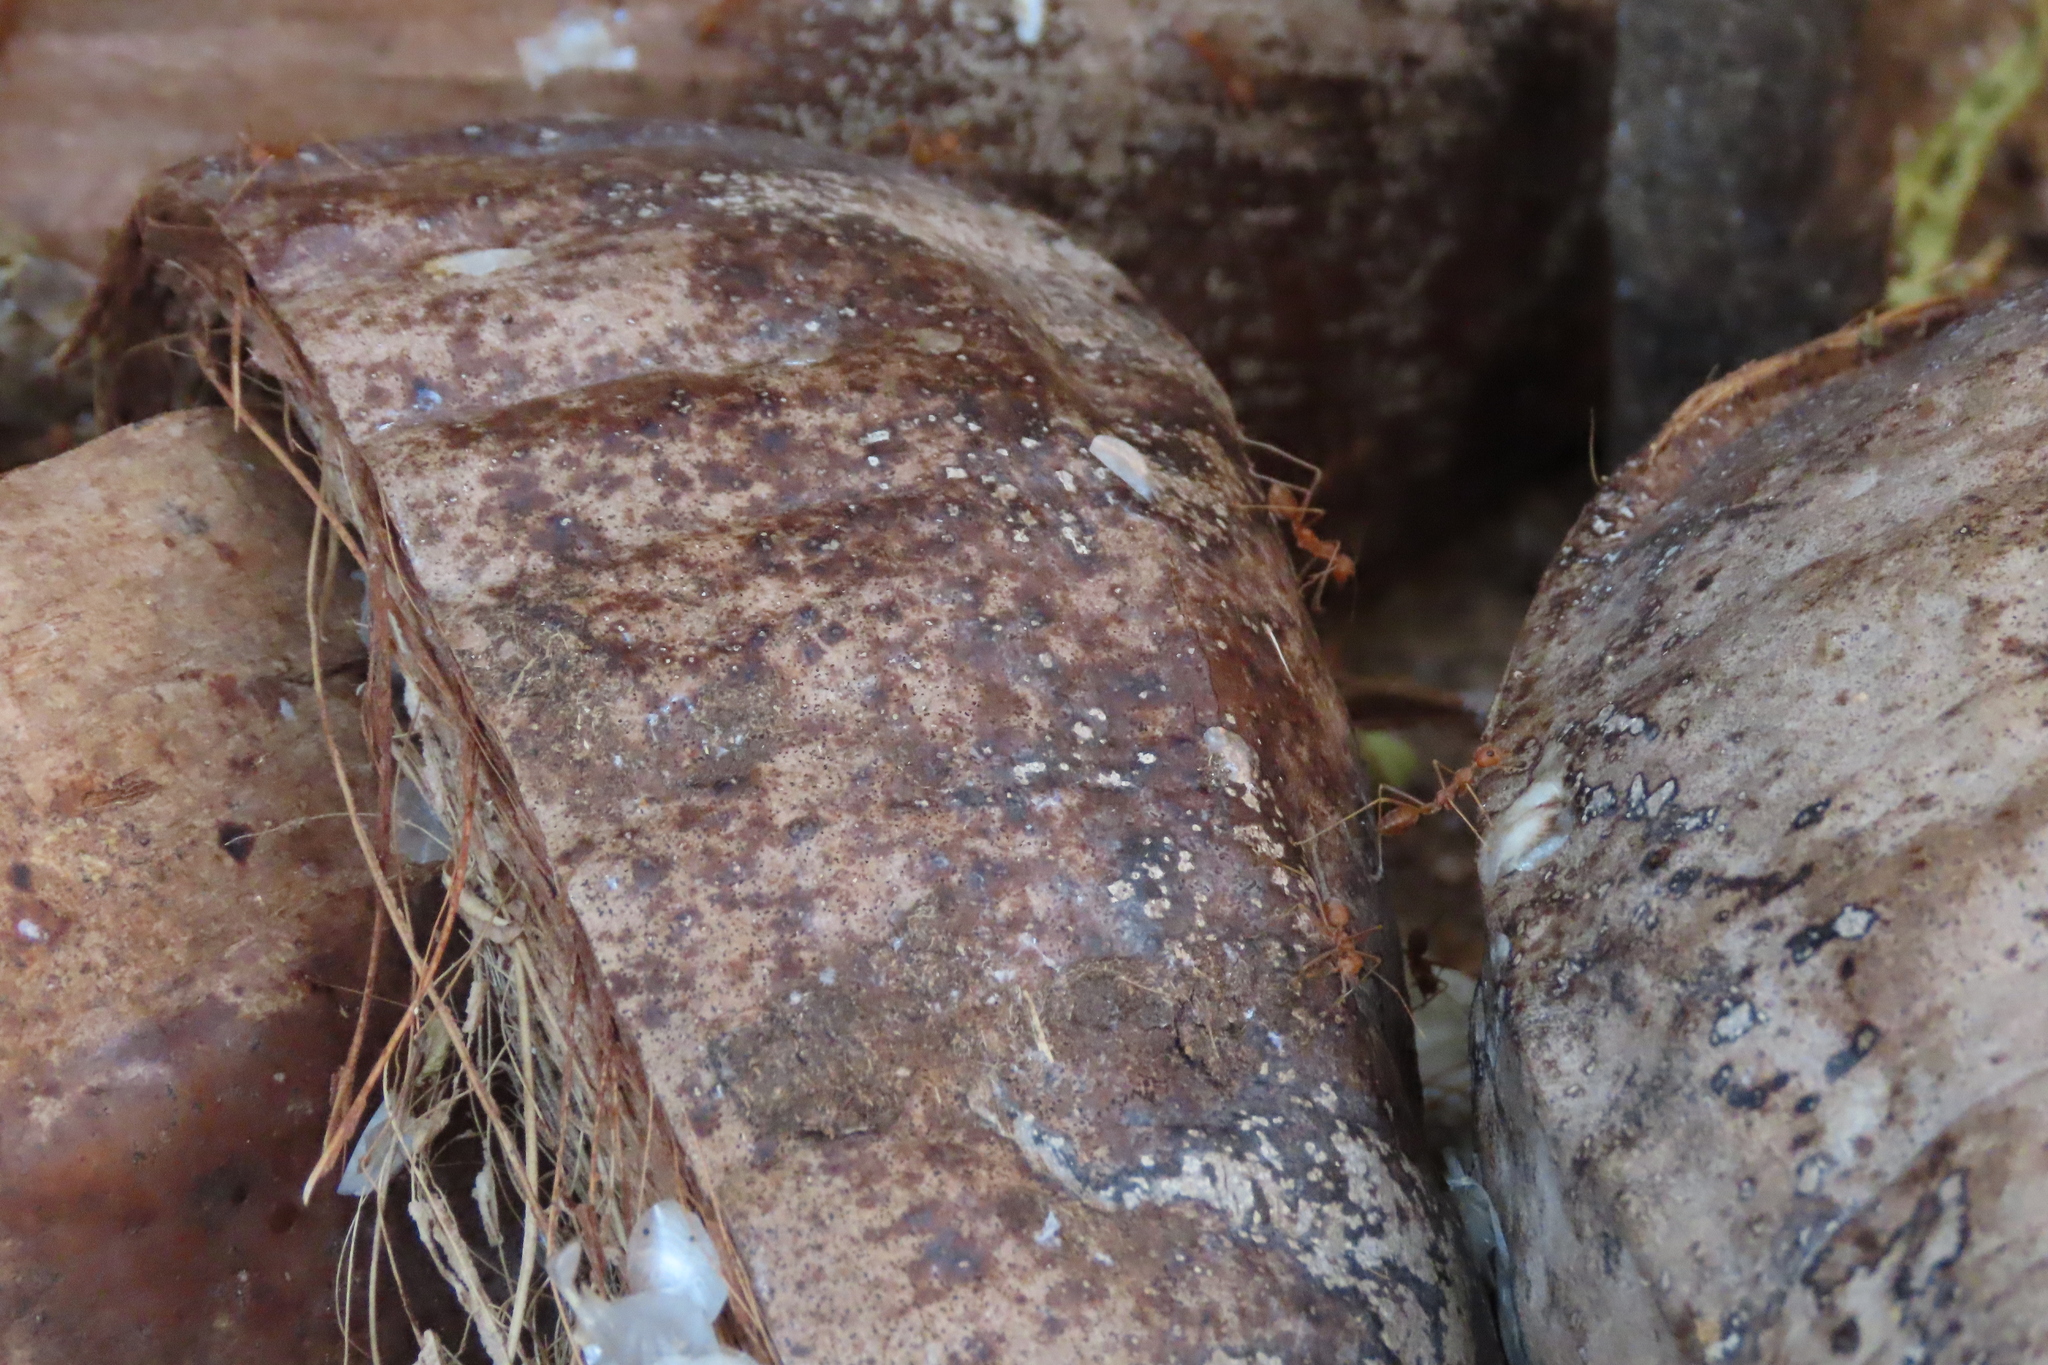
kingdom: Animalia
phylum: Arthropoda
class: Insecta
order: Hymenoptera
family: Formicidae
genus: Oecophylla
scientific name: Oecophylla smaragdina
